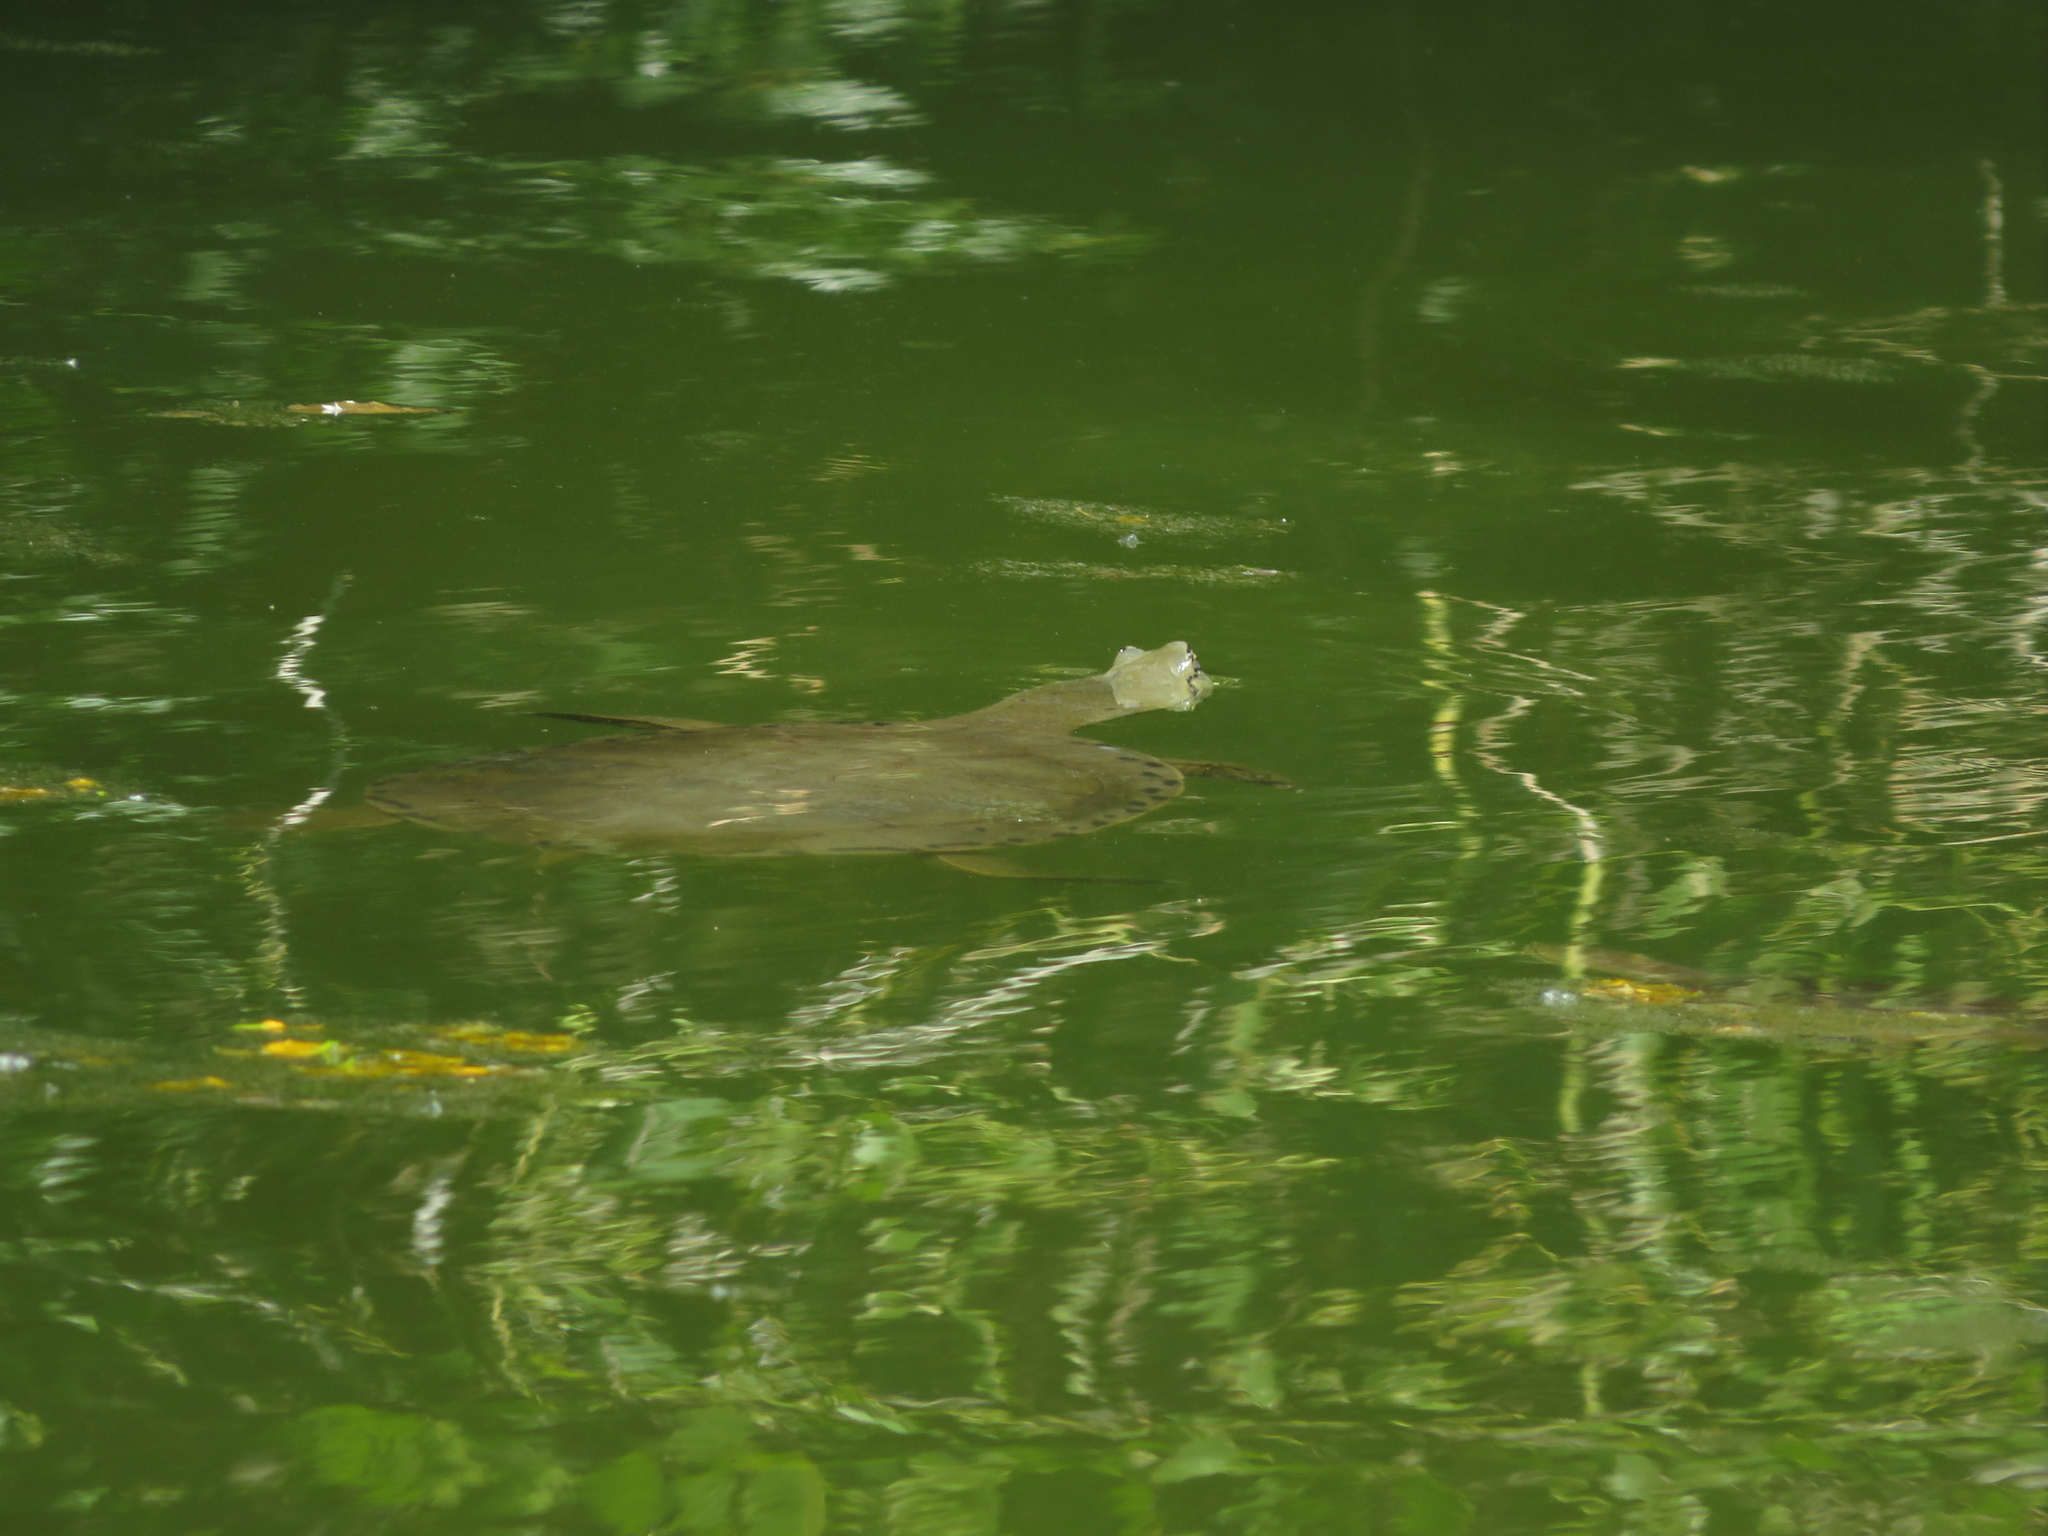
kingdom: Animalia
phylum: Chordata
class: Testudines
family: Chelidae
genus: Phrynops
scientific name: Phrynops hilarii
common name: Side-necked turtle of saint hillaire
